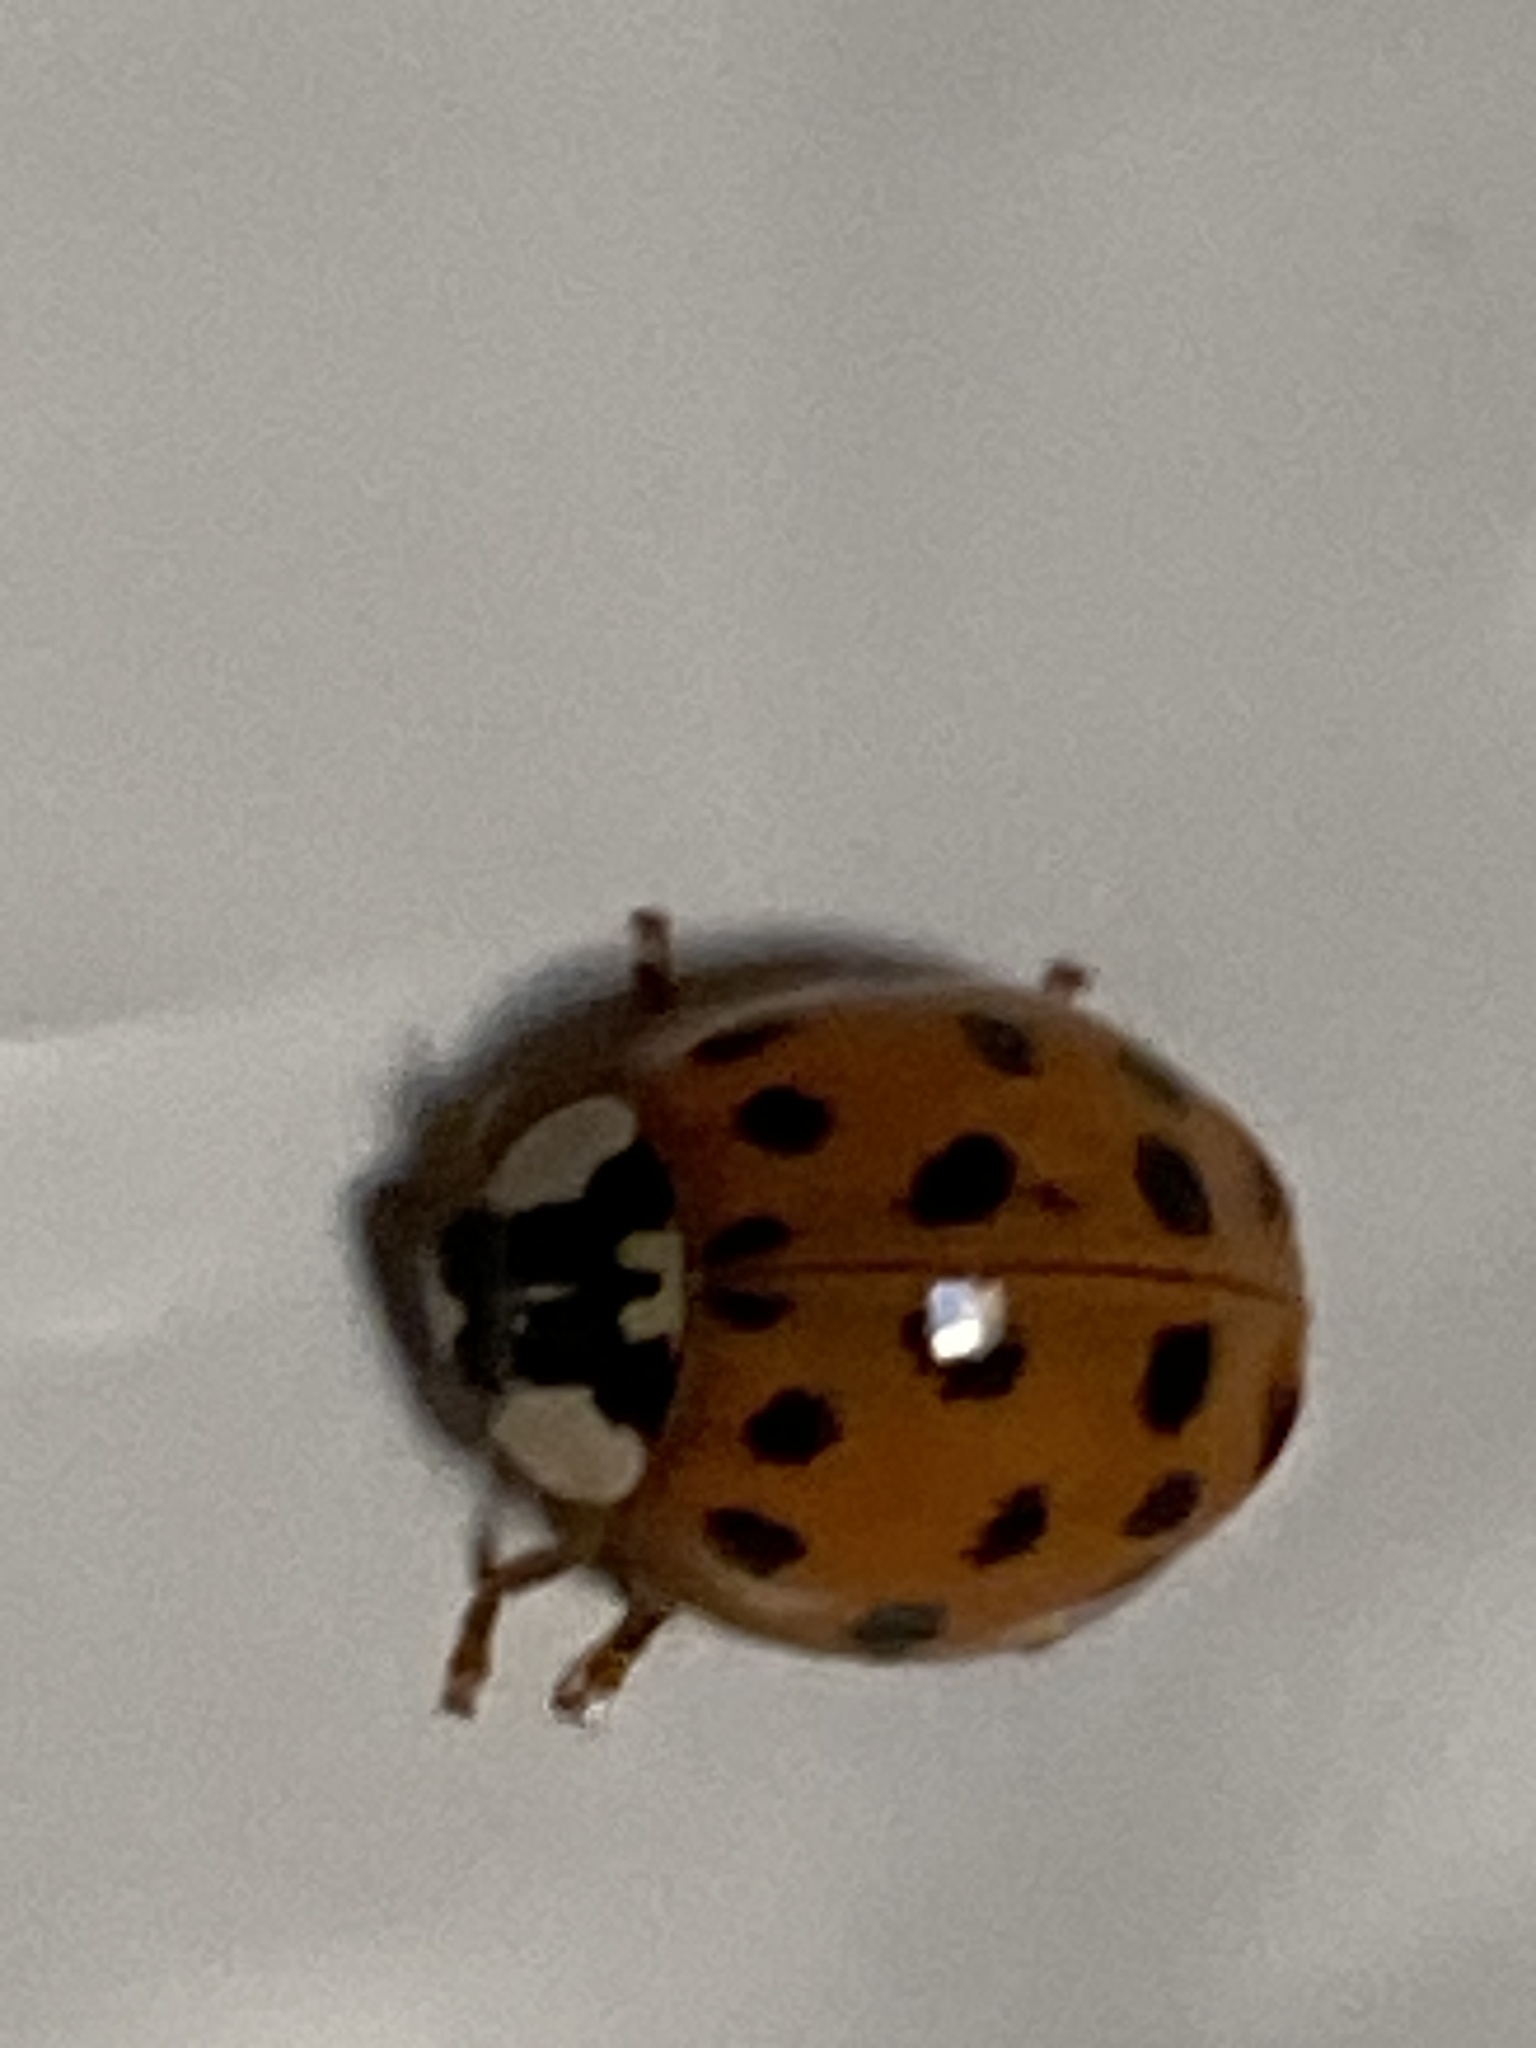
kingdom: Animalia
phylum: Arthropoda
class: Insecta
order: Coleoptera
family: Coccinellidae
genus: Harmonia
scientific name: Harmonia axyridis
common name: Harlequin ladybird
